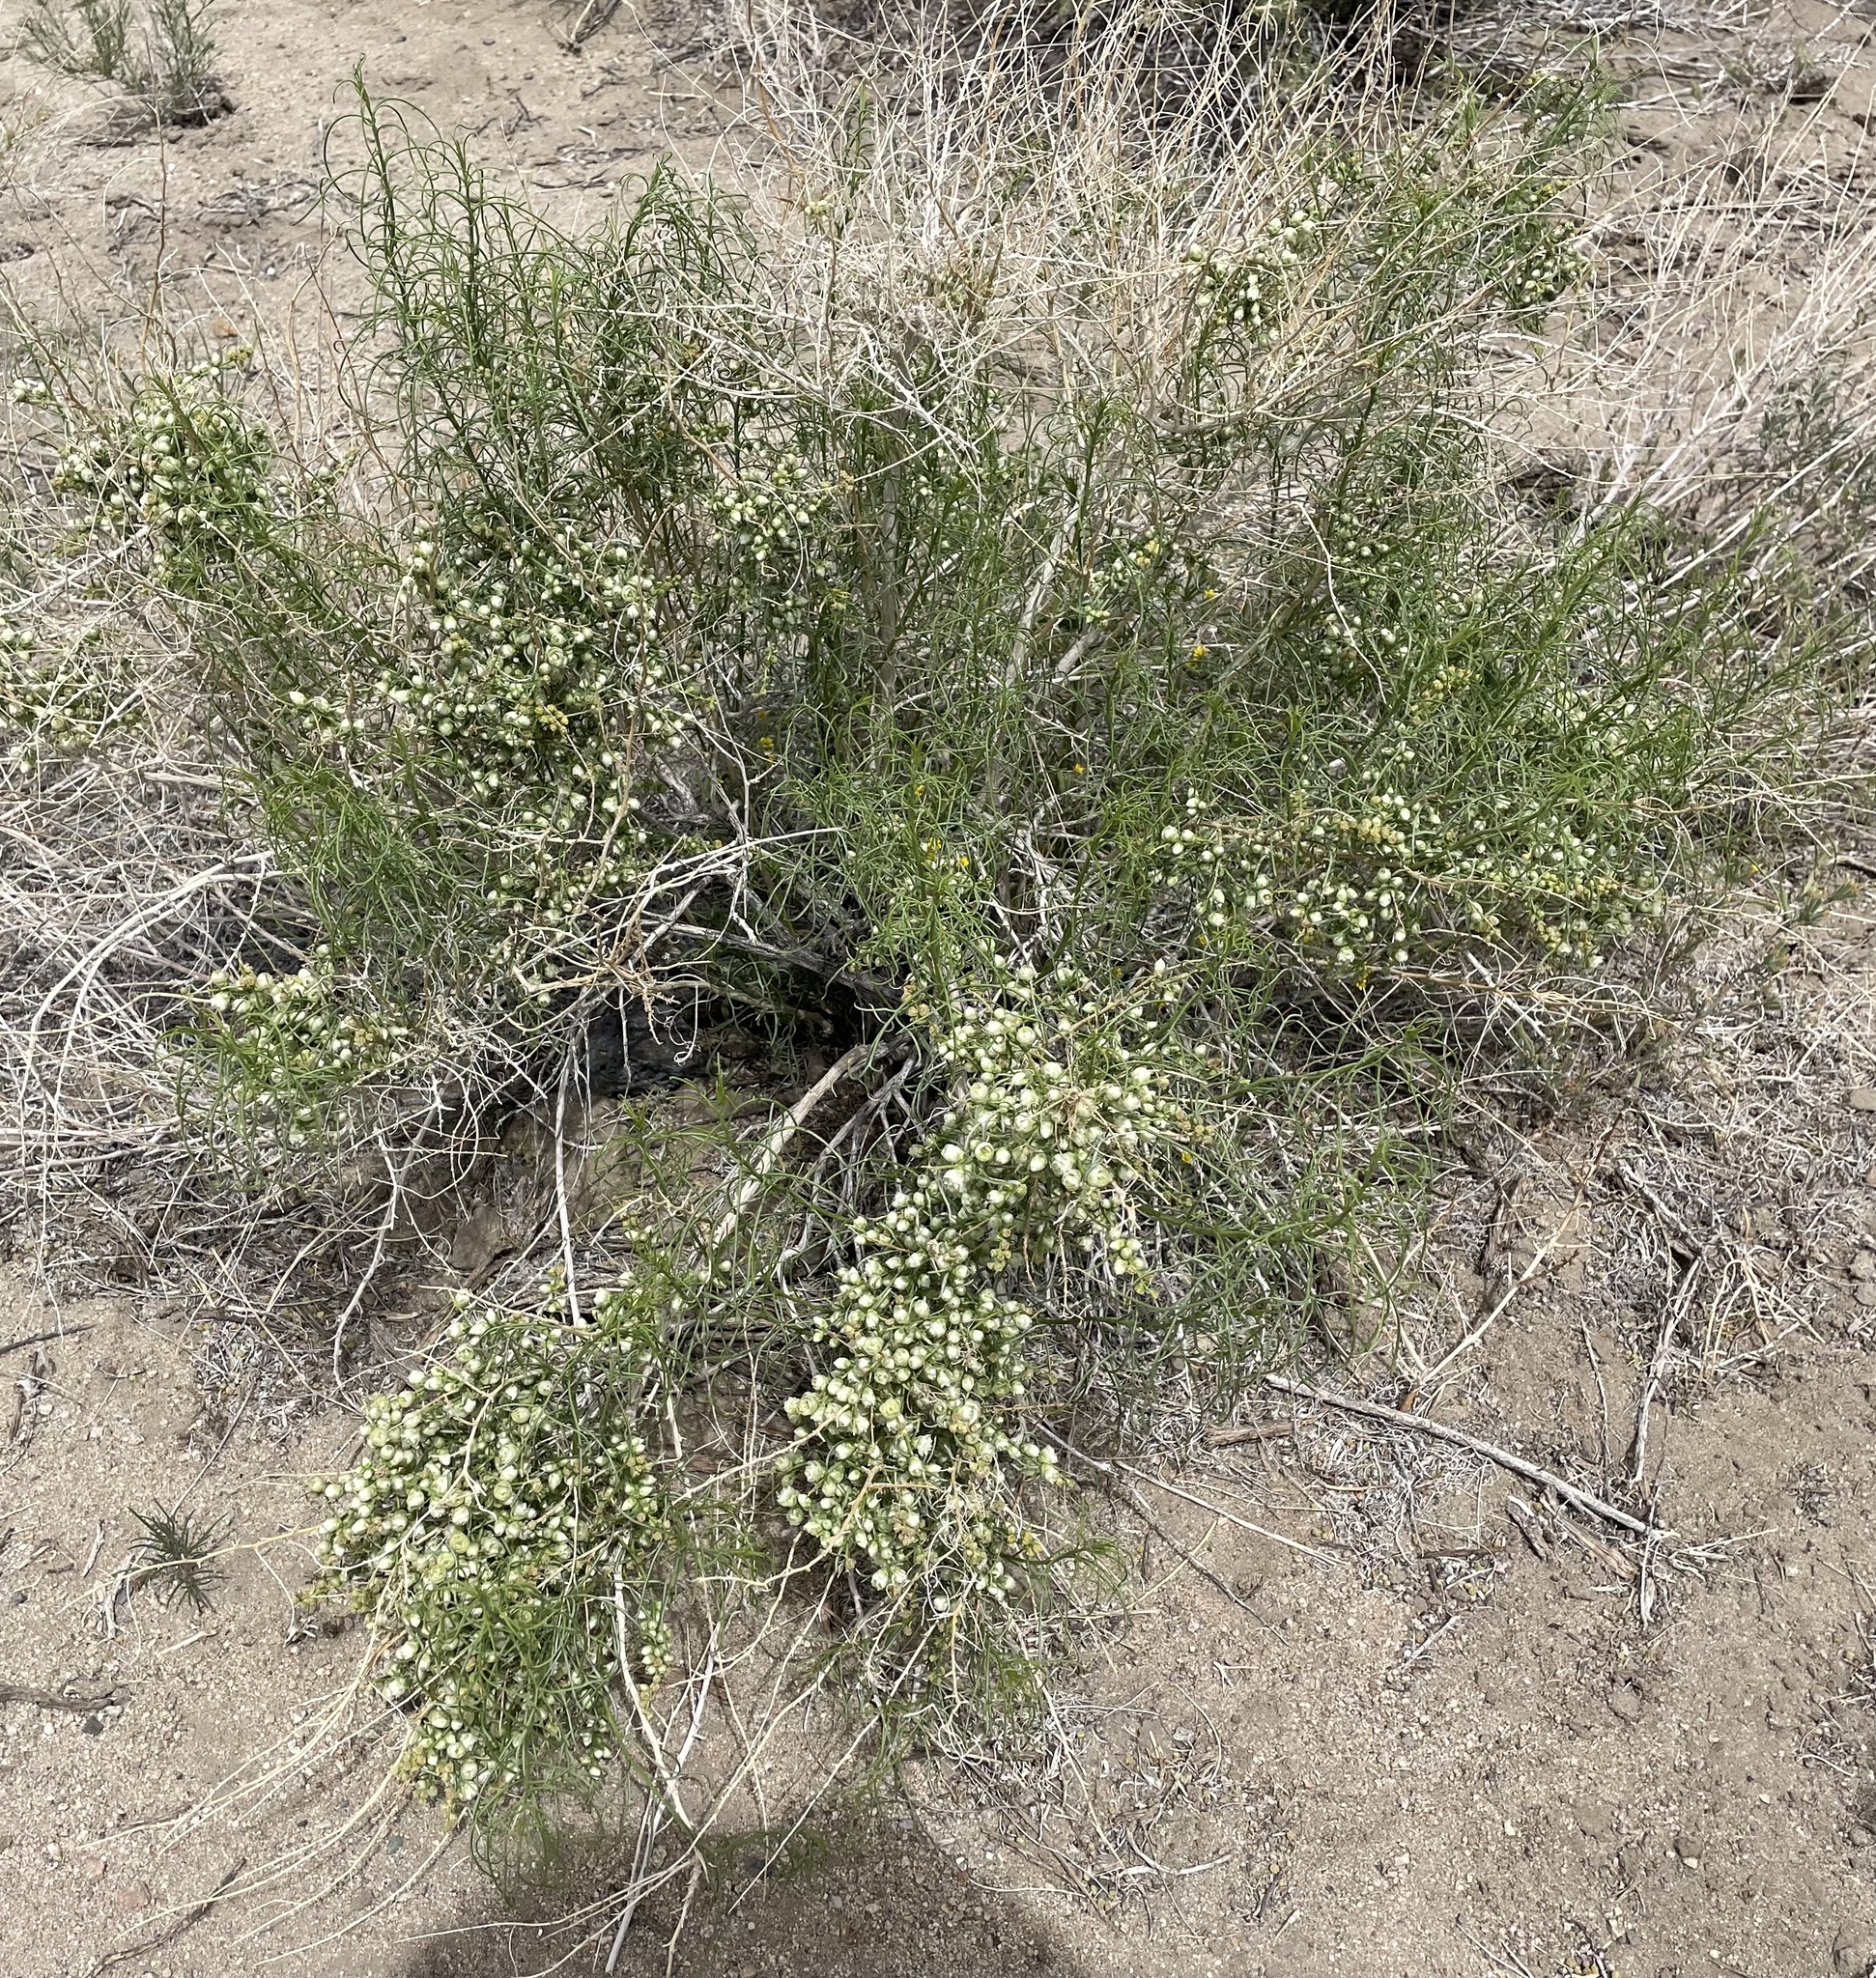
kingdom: Plantae
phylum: Tracheophyta
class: Magnoliopsida
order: Asterales
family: Asteraceae
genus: Ambrosia
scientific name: Ambrosia salsola
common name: Burrobrush
